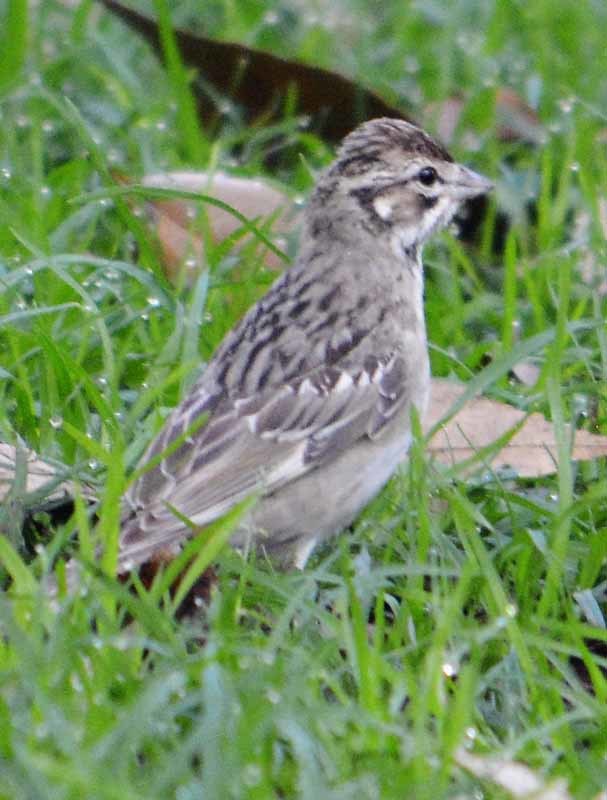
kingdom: Animalia
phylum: Chordata
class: Aves
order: Passeriformes
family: Passerellidae
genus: Chondestes
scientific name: Chondestes grammacus
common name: Lark sparrow
